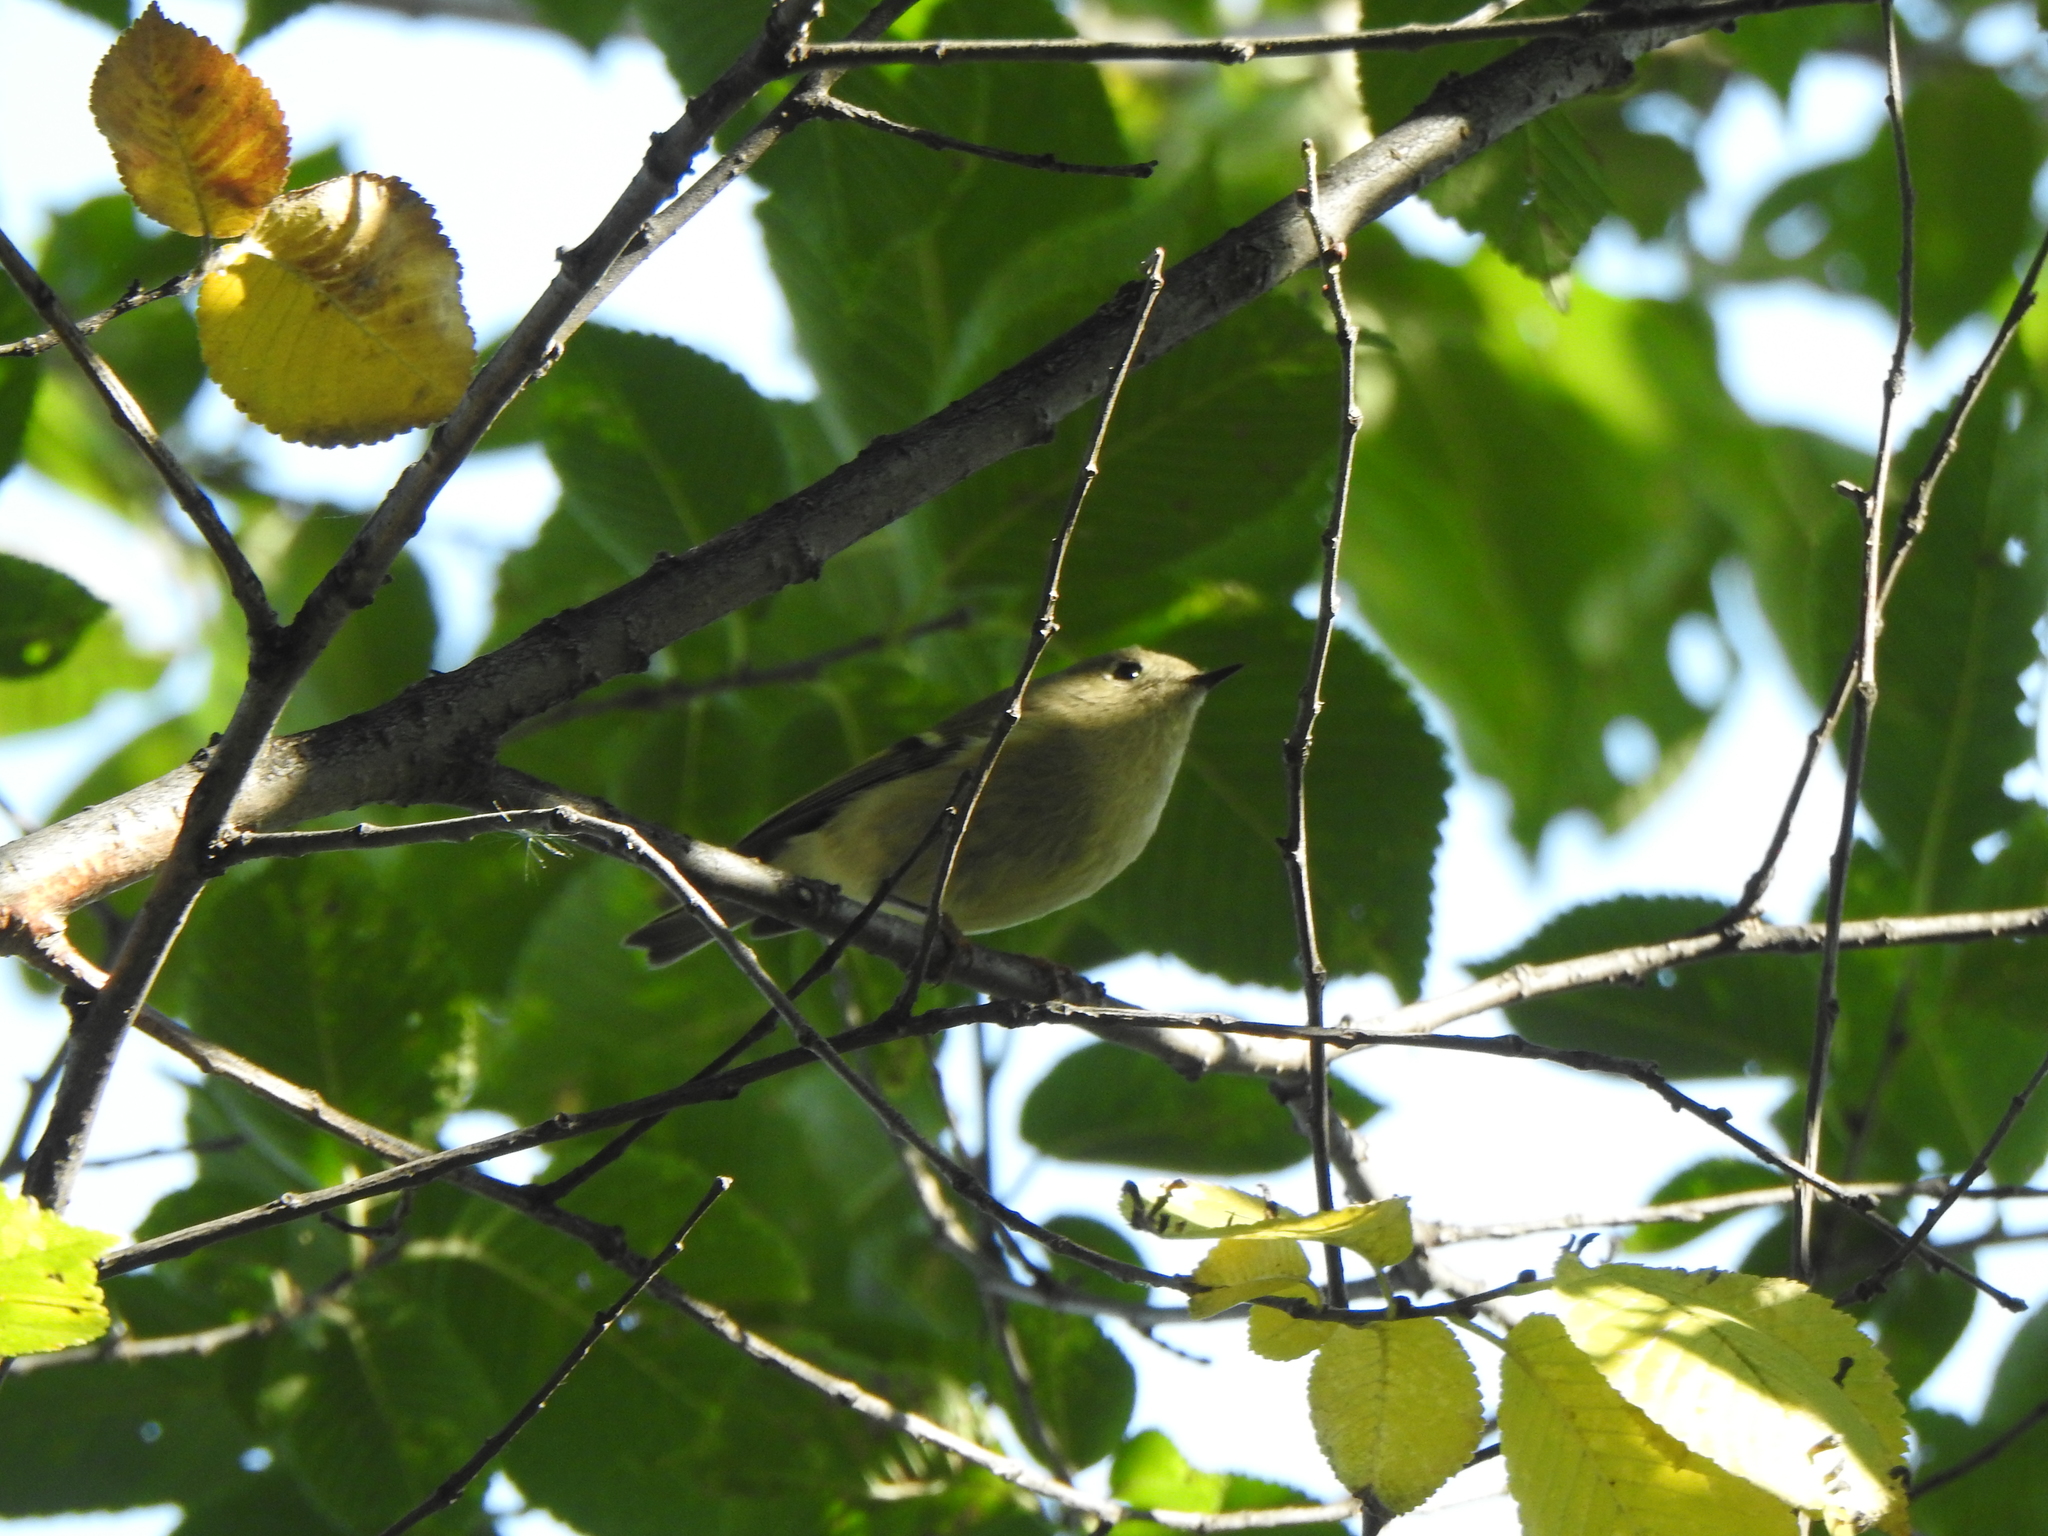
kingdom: Animalia
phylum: Chordata
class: Aves
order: Passeriformes
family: Regulidae
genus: Regulus
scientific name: Regulus calendula
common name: Ruby-crowned kinglet
